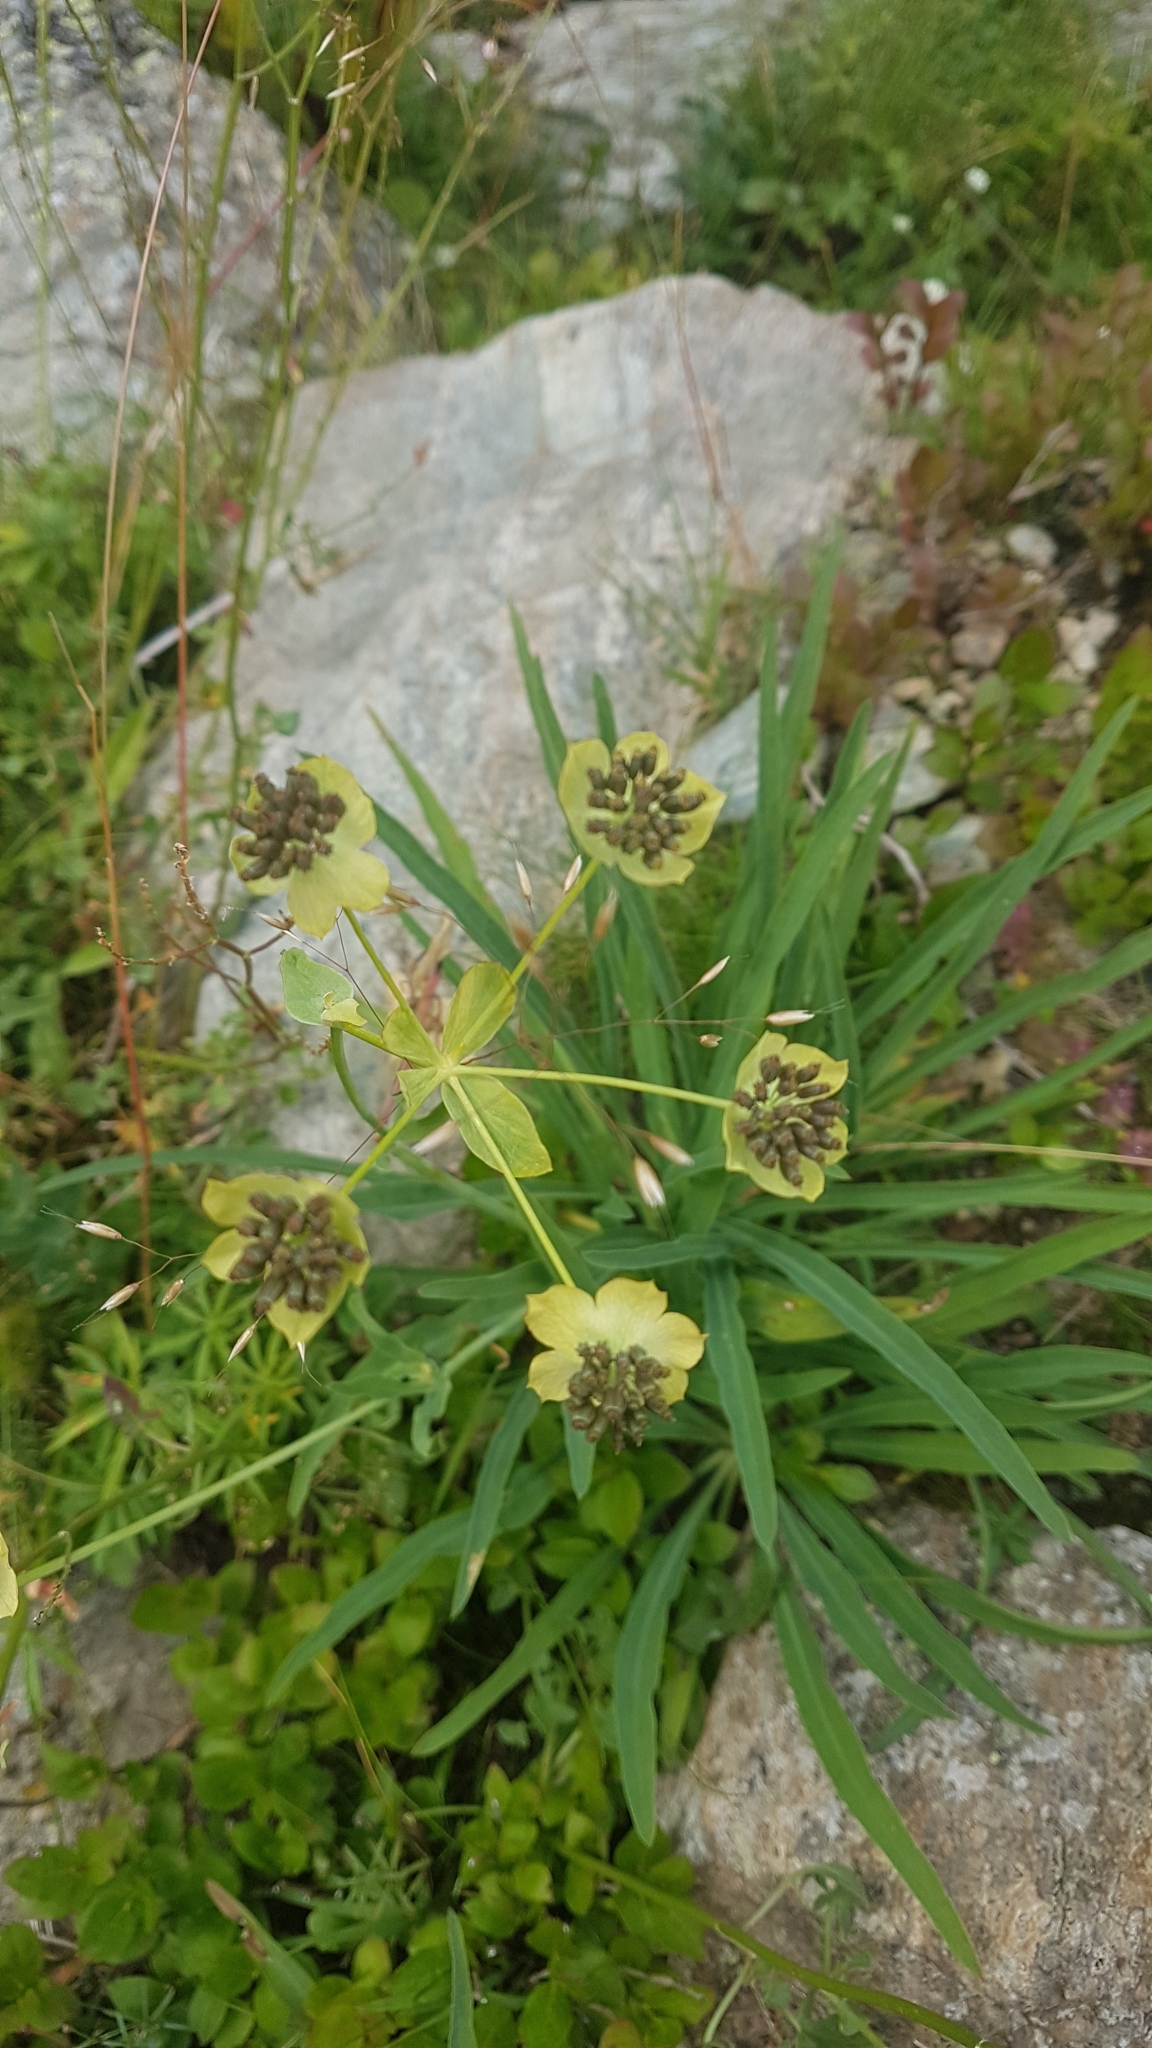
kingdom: Plantae
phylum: Tracheophyta
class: Magnoliopsida
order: Apiales
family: Apiaceae
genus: Bupleurum
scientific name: Bupleurum stellatum
